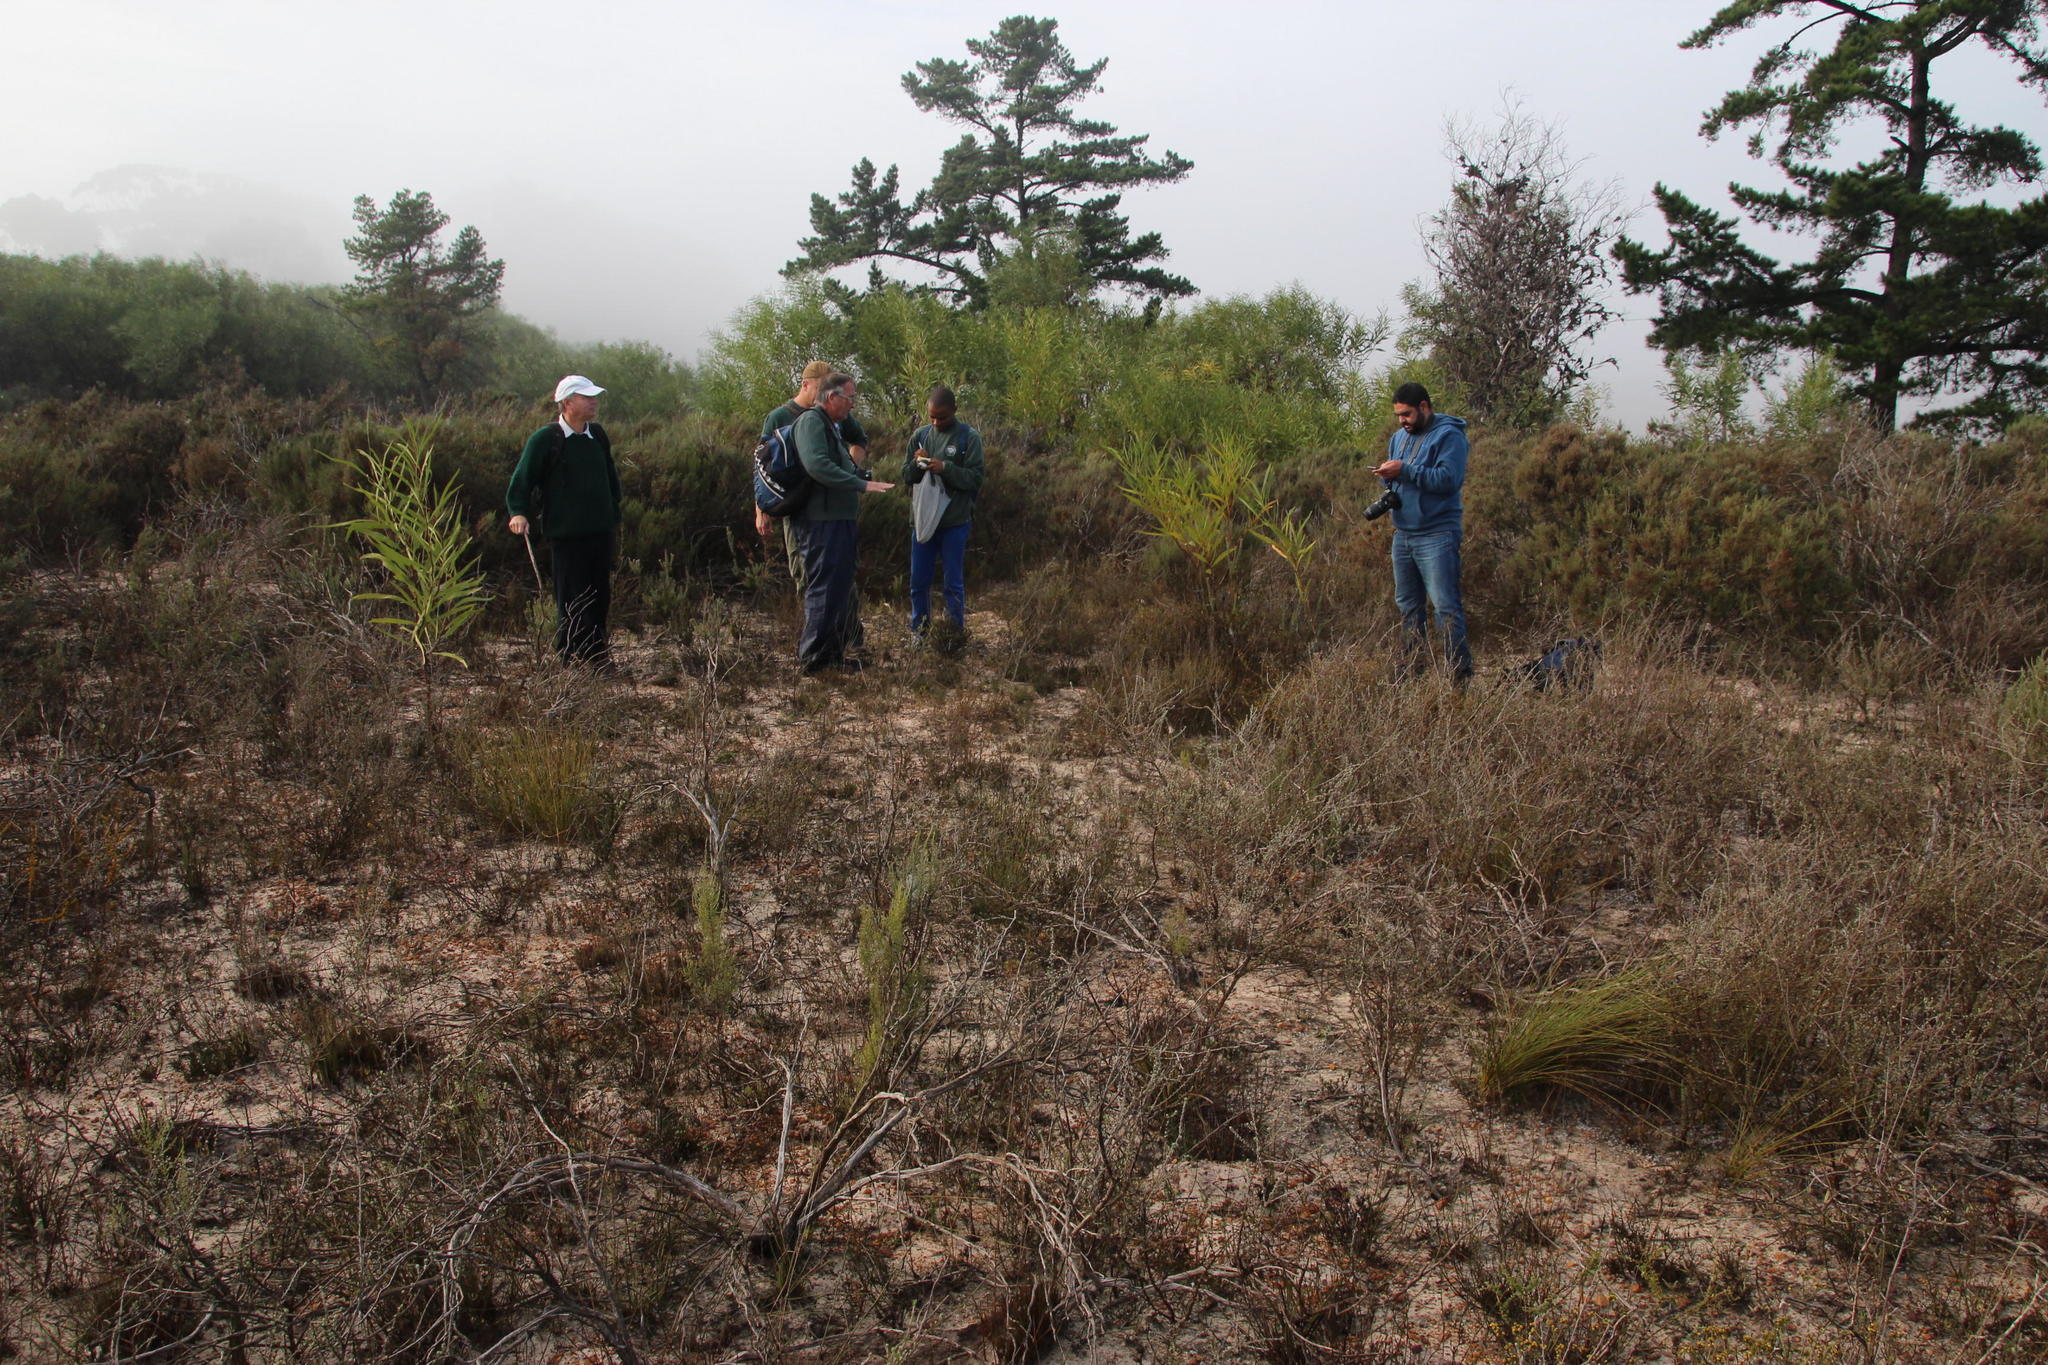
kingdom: Plantae
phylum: Tracheophyta
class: Magnoliopsida
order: Asterales
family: Asteraceae
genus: Marasmodes
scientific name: Marasmodes dummeri
